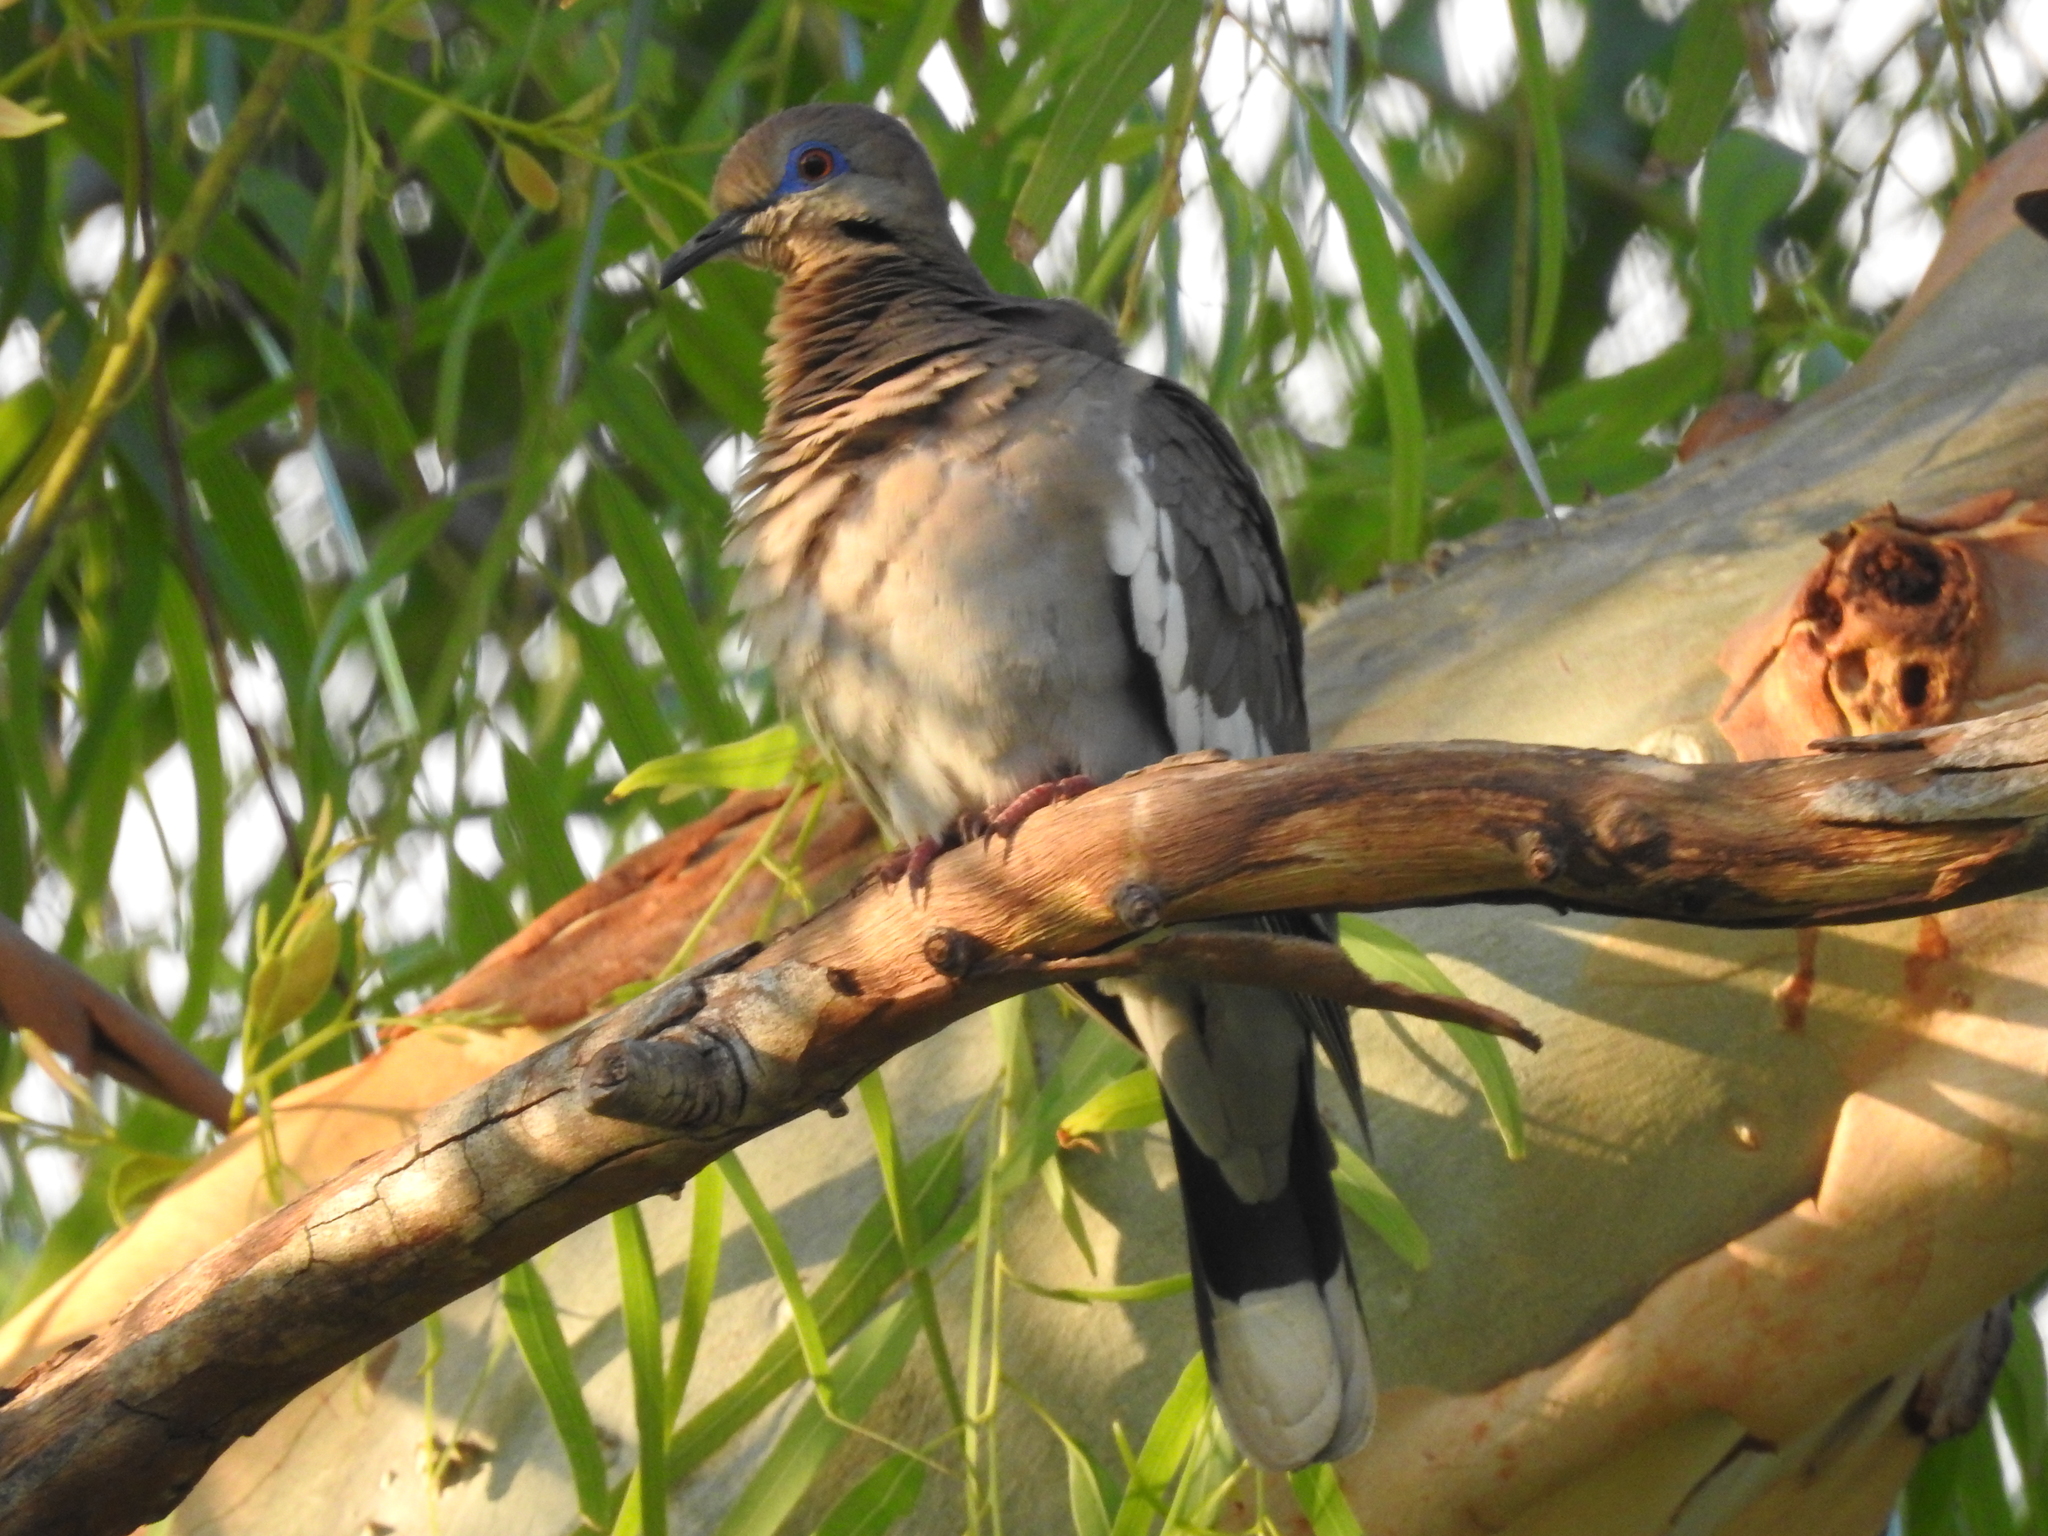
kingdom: Animalia
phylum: Chordata
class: Aves
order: Columbiformes
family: Columbidae
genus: Zenaida
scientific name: Zenaida asiatica
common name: White-winged dove
